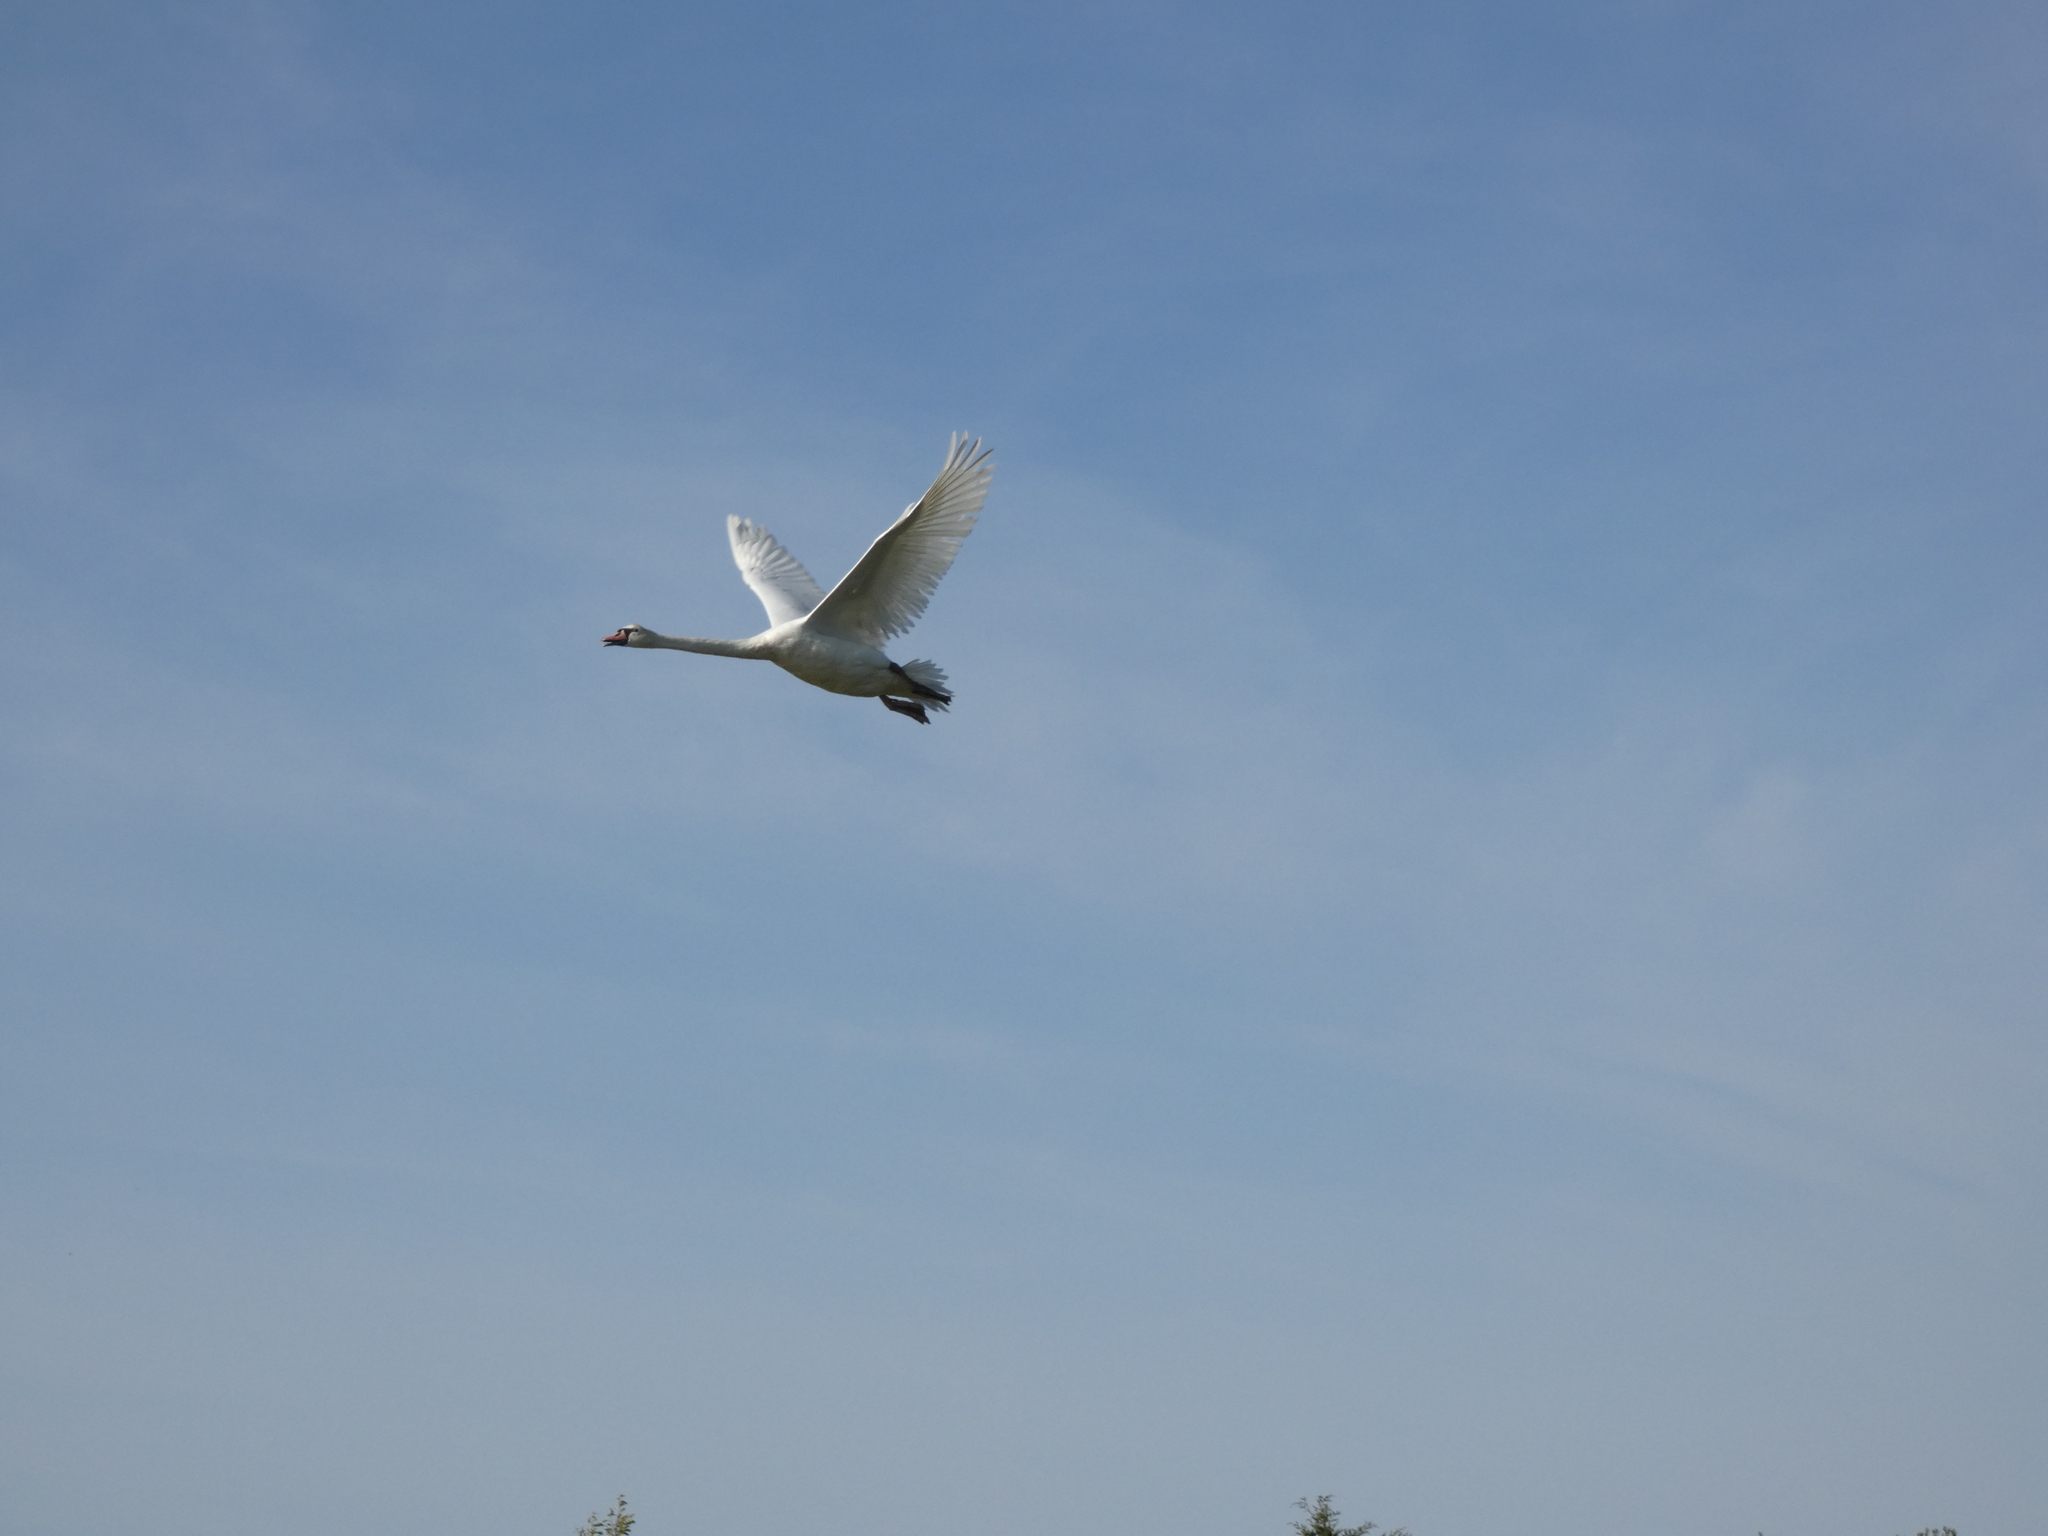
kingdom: Animalia
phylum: Chordata
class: Aves
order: Anseriformes
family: Anatidae
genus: Cygnus
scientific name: Cygnus olor
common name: Mute swan
